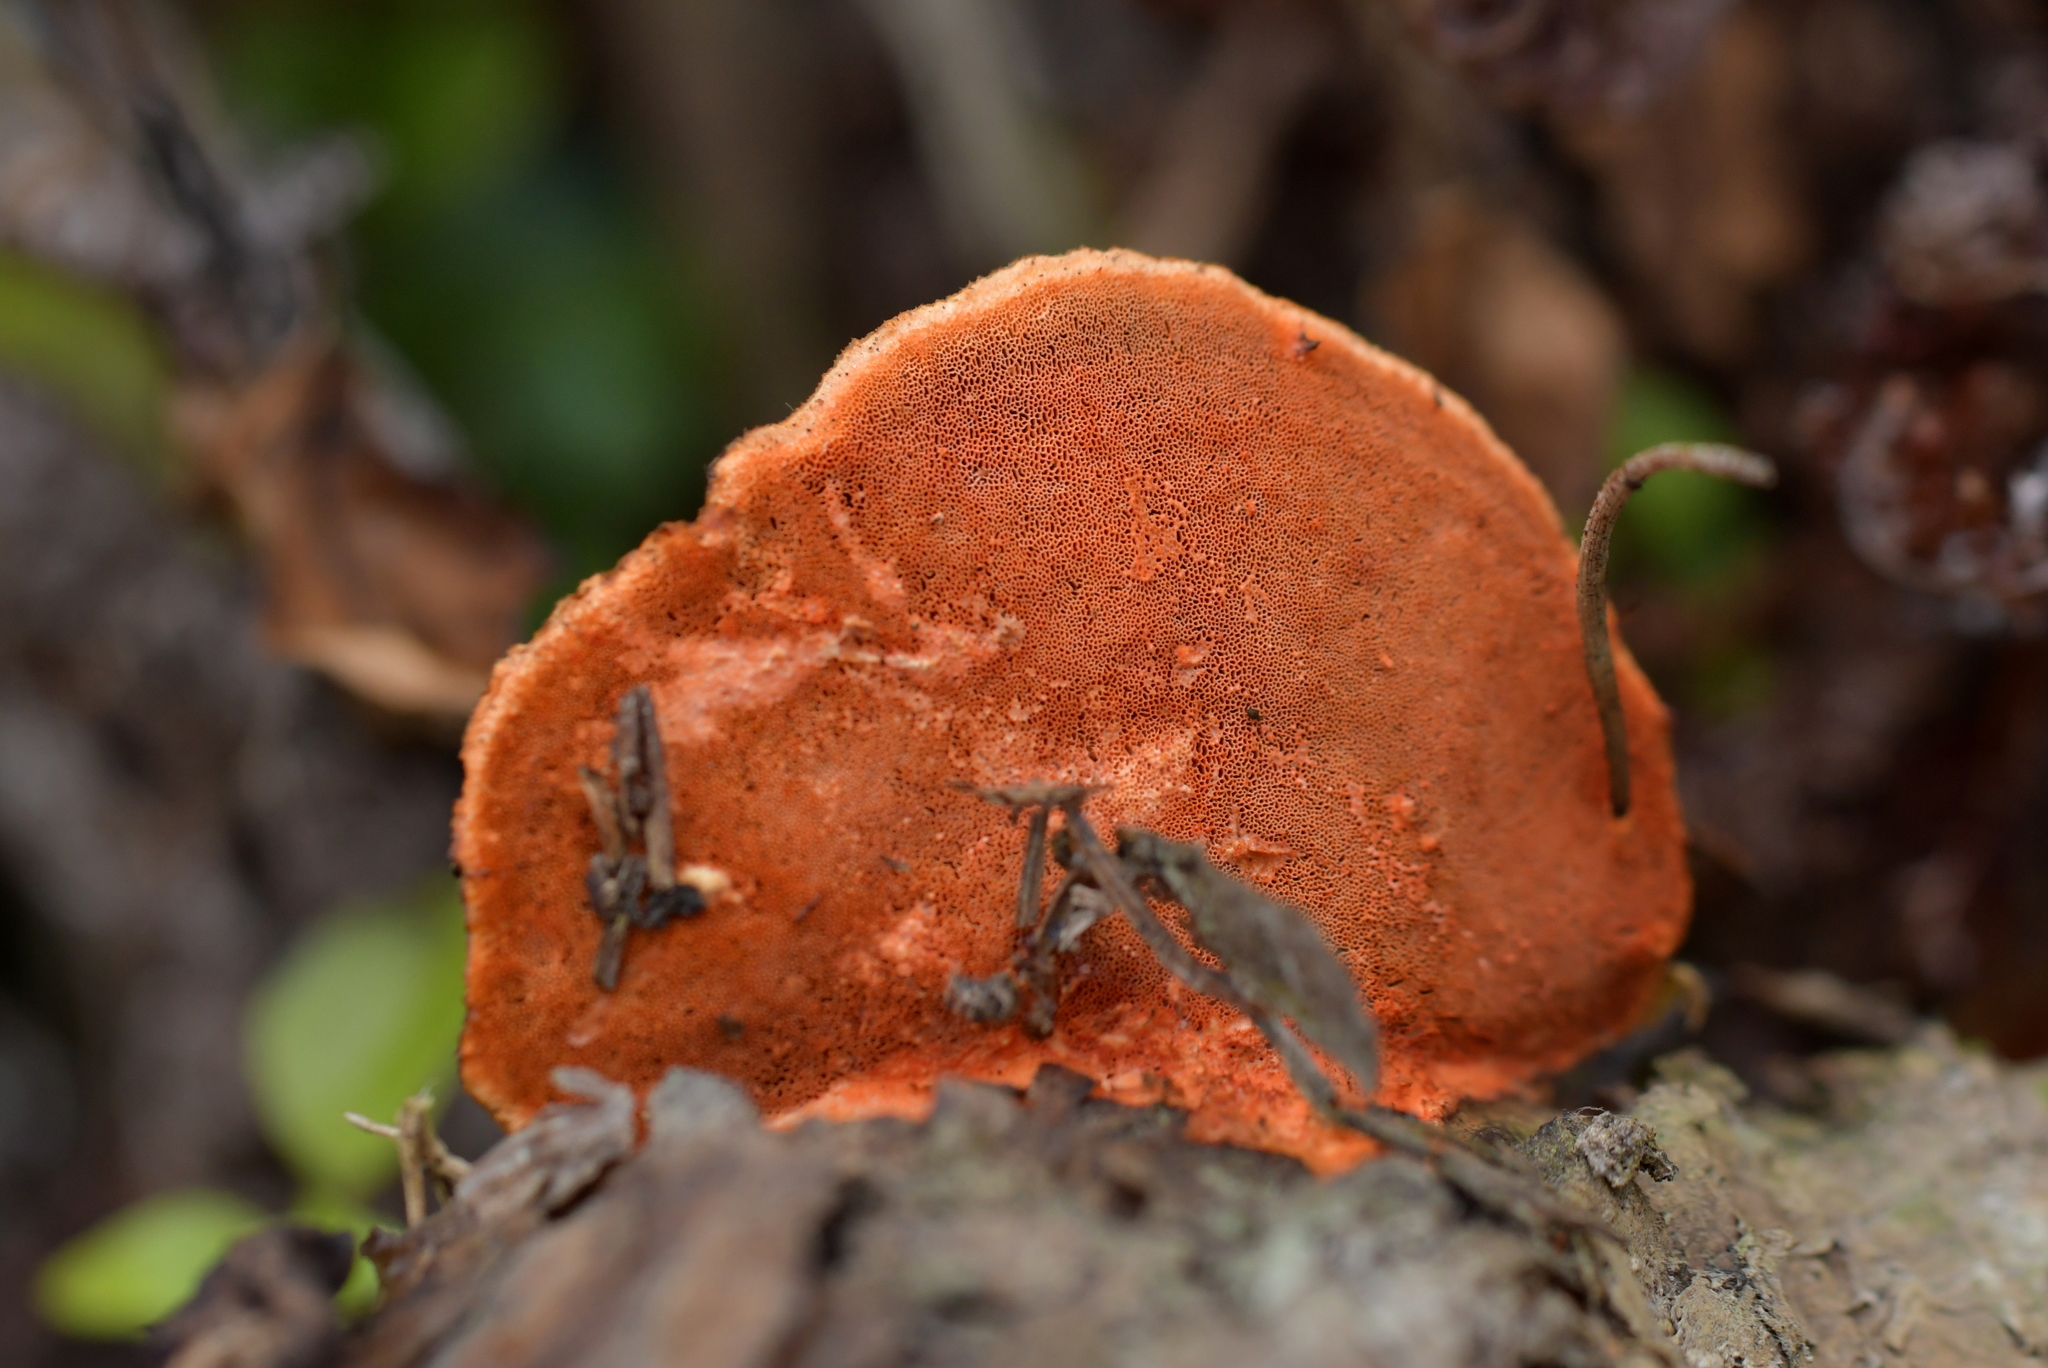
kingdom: Fungi
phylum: Basidiomycota
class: Agaricomycetes
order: Polyporales
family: Polyporaceae
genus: Trametes
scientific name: Trametes coccinea
